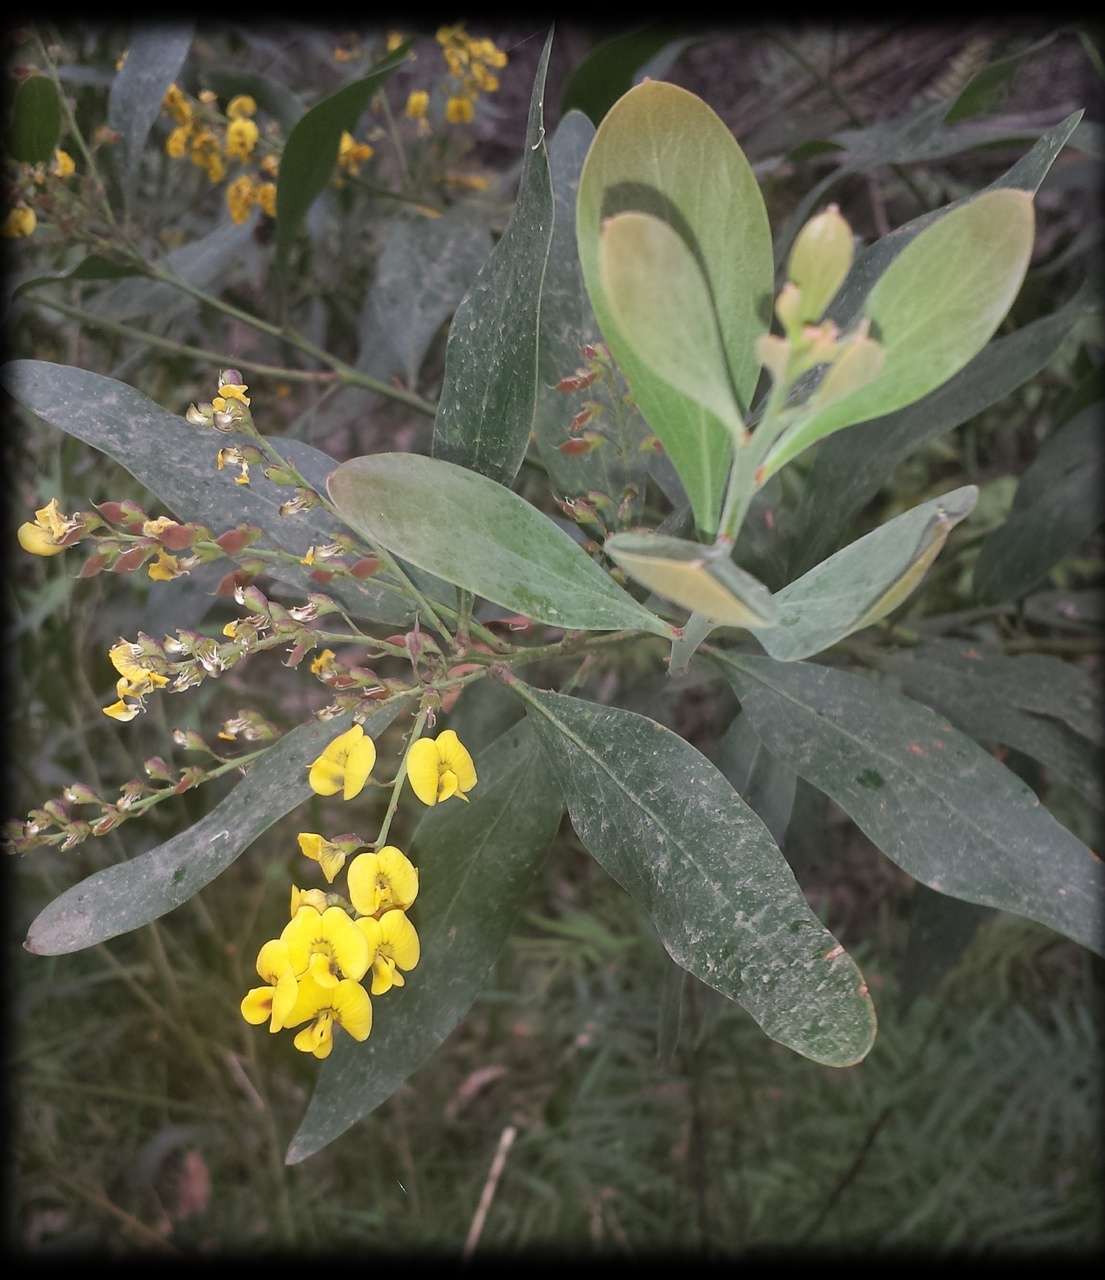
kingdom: Plantae
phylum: Tracheophyta
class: Magnoliopsida
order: Fabales
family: Fabaceae
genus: Daviesia
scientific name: Daviesia laxiflora
